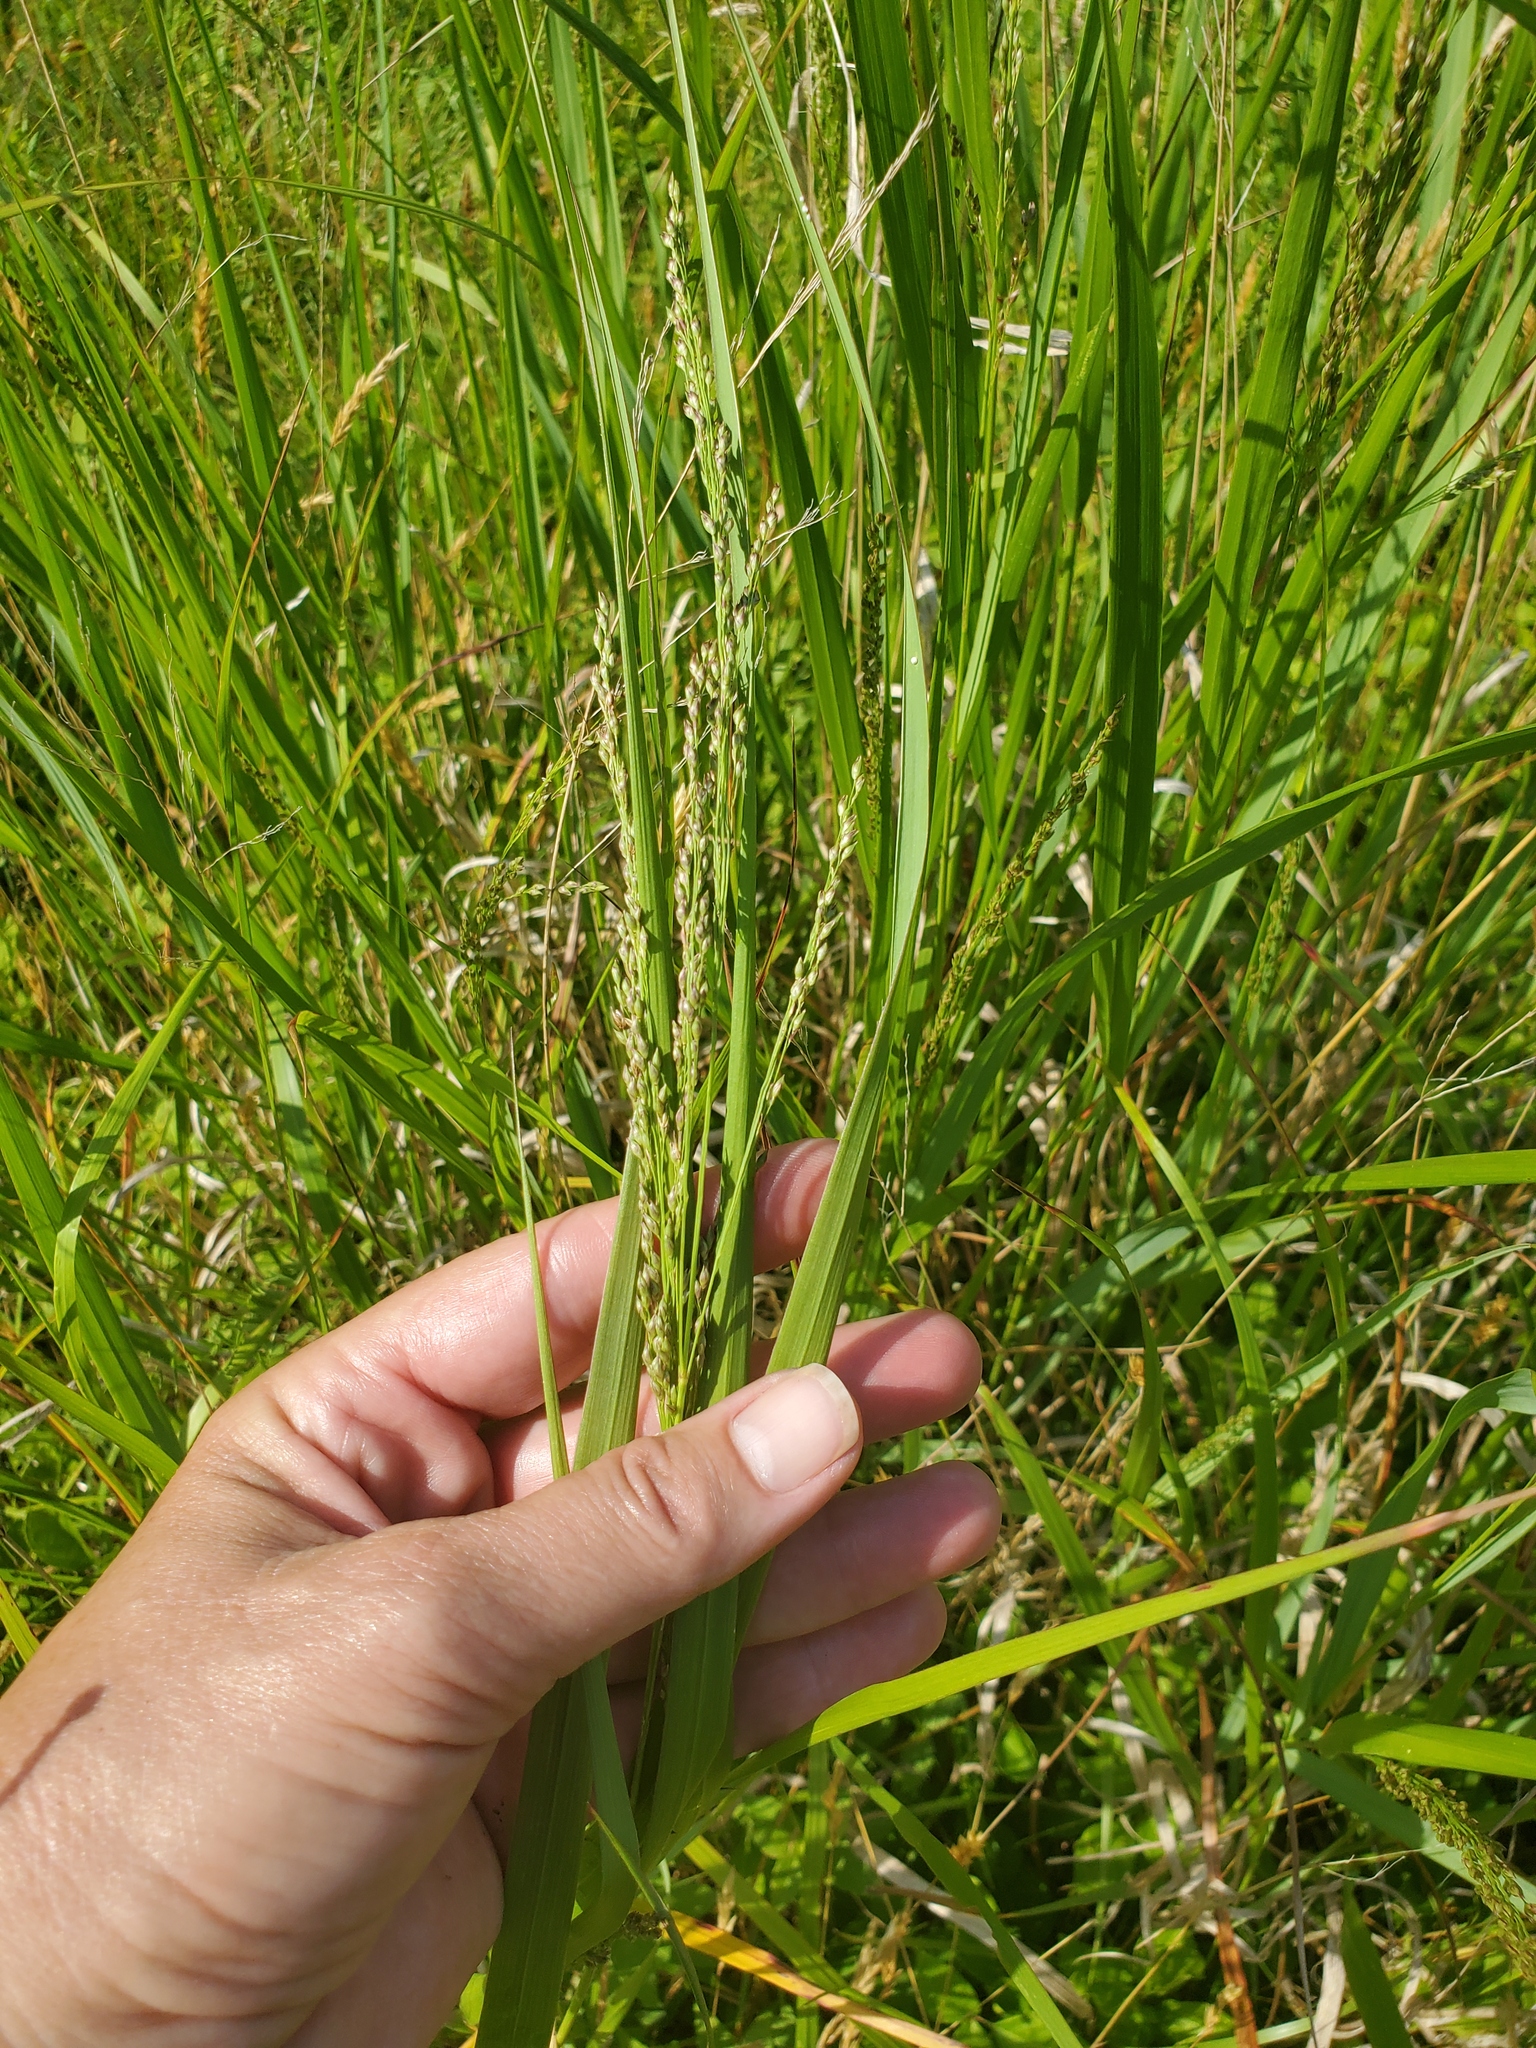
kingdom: Plantae
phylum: Tracheophyta
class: Liliopsida
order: Poales
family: Poaceae
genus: Panicum
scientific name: Panicum virgatum
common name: Switchgrass
